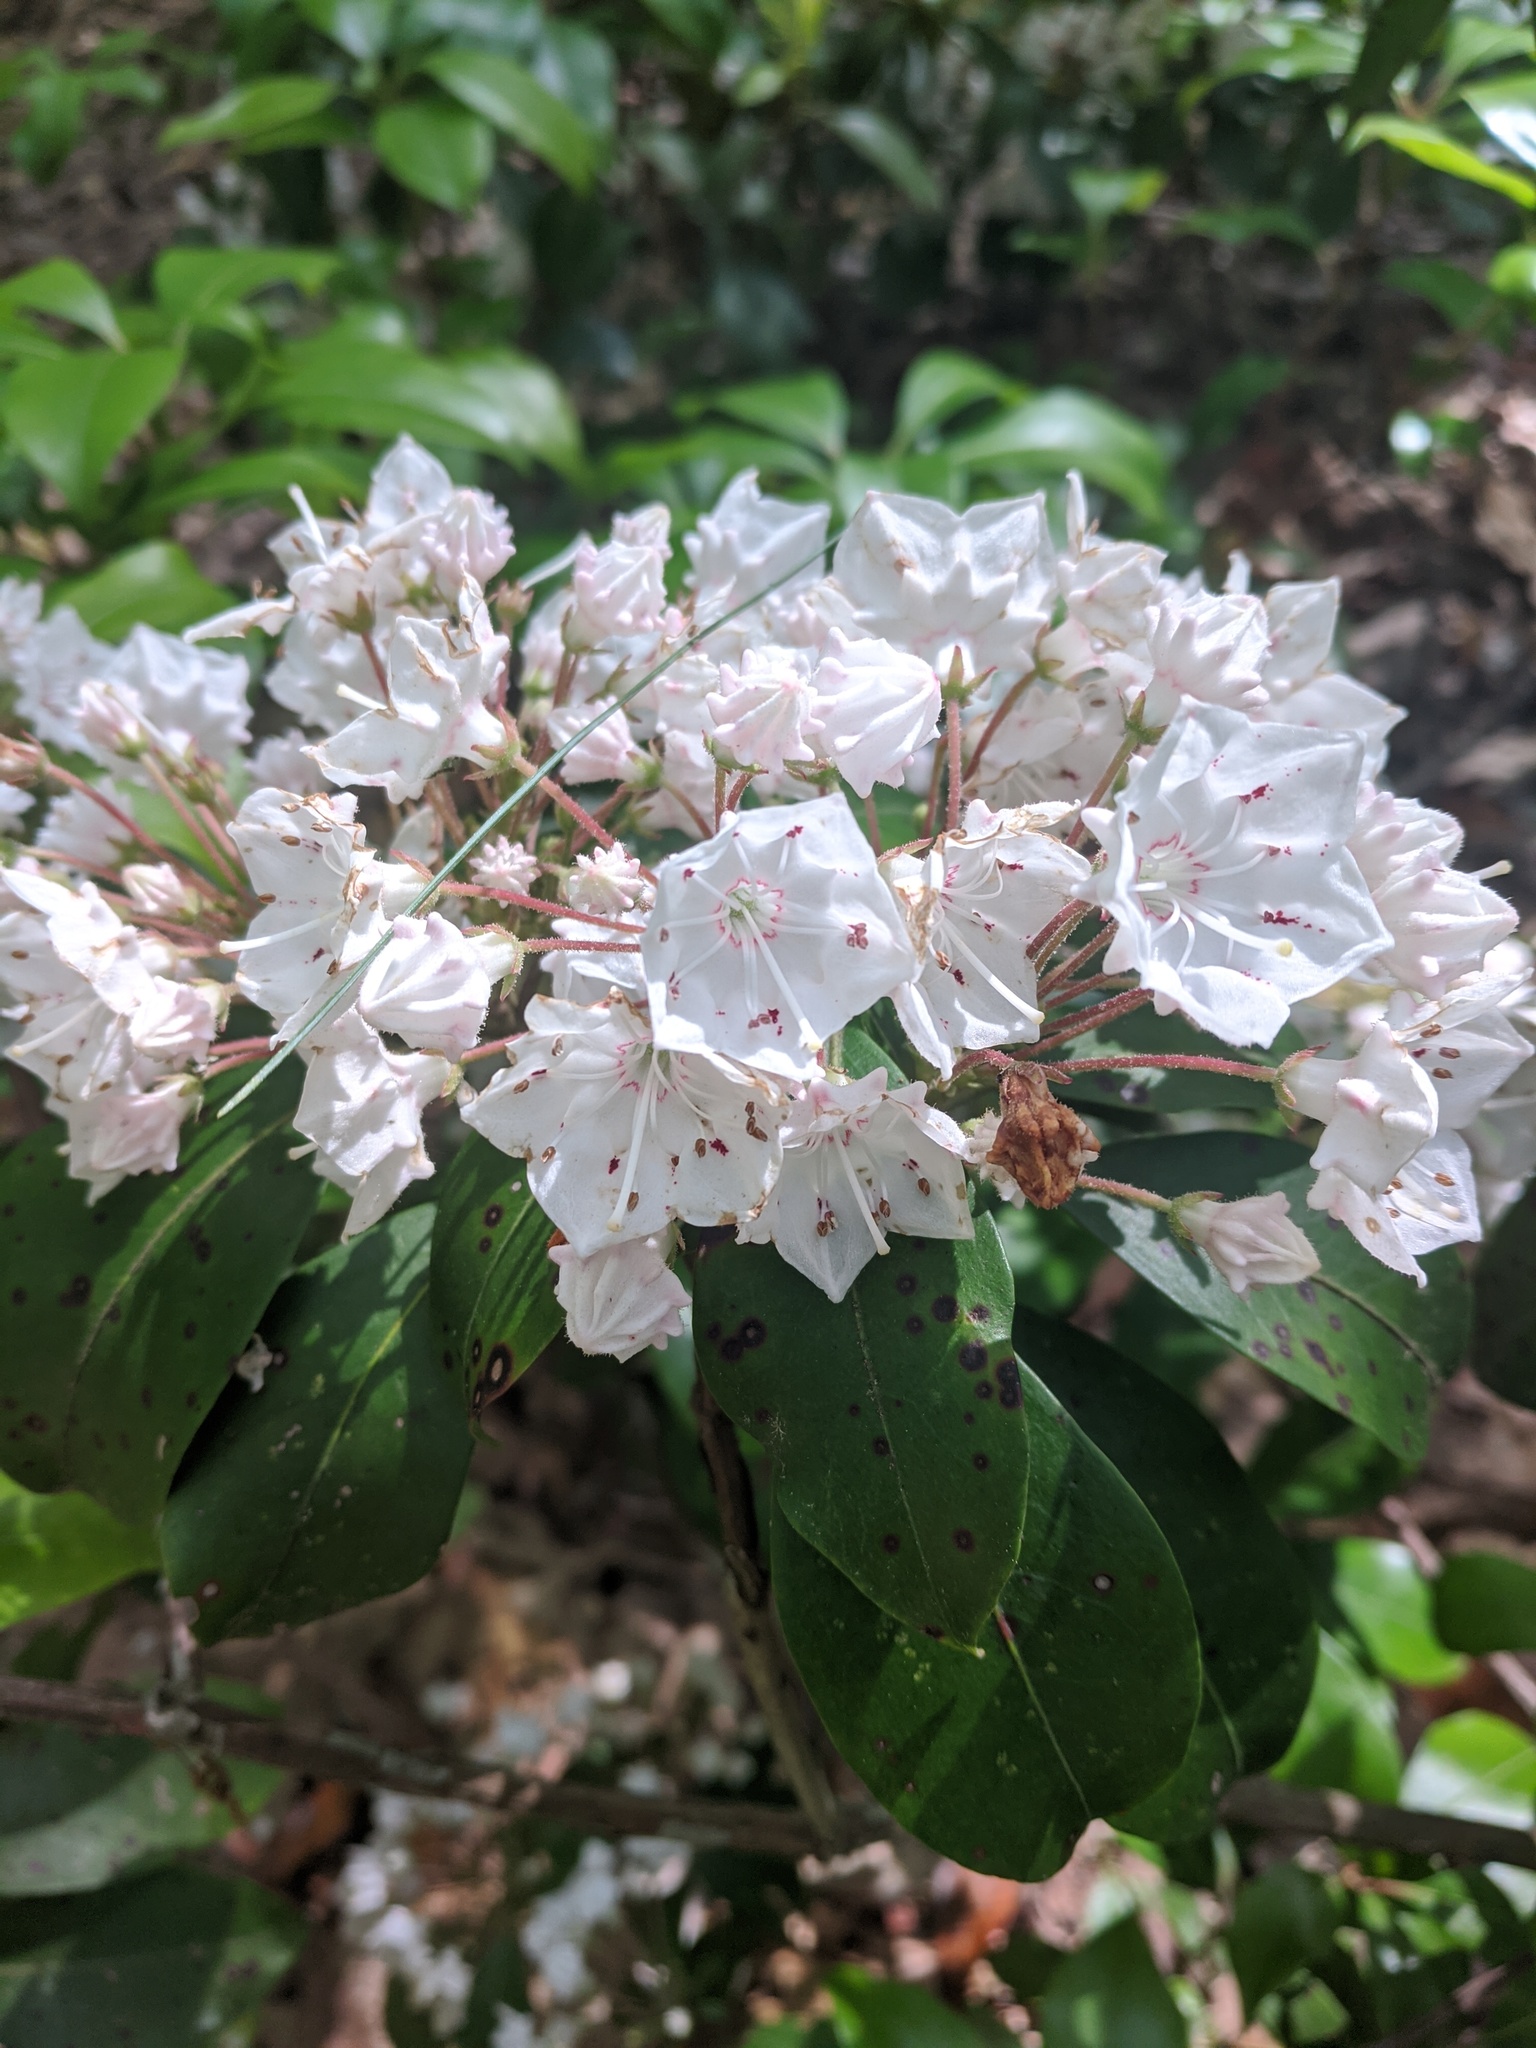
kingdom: Plantae
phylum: Tracheophyta
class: Magnoliopsida
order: Ericales
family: Ericaceae
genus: Kalmia
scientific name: Kalmia latifolia
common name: Mountain-laurel
